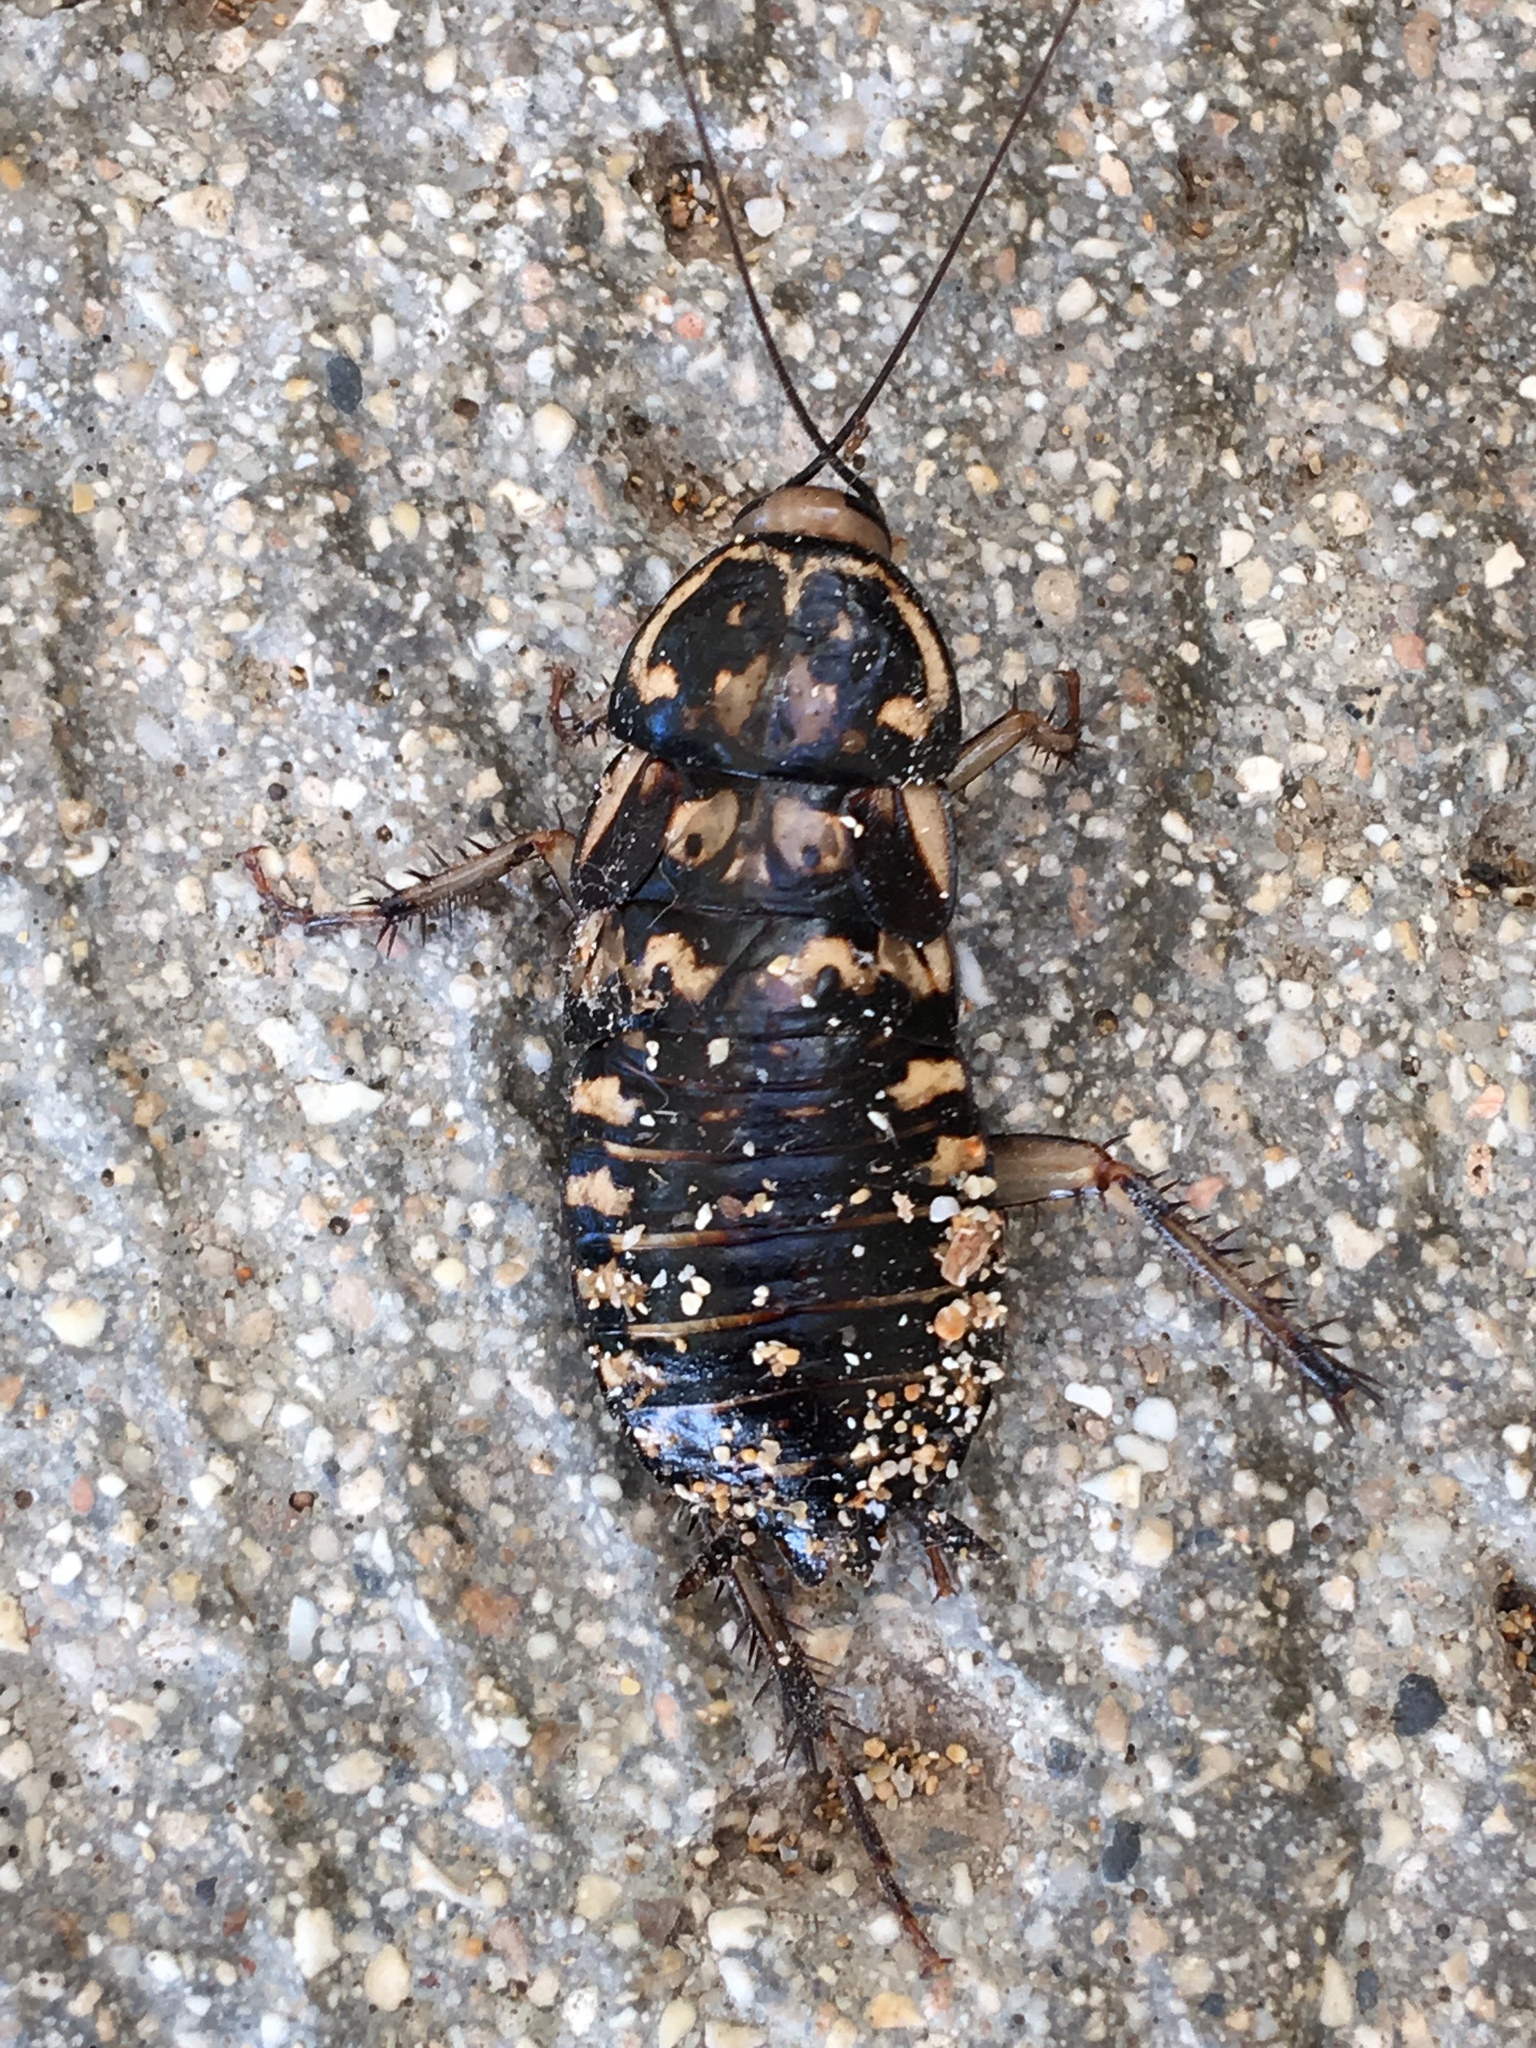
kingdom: Animalia
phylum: Arthropoda
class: Insecta
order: Blattodea
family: Blattidae
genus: Neostylopyga
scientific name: Neostylopyga rhombifolia
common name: Harlequin cockroach
